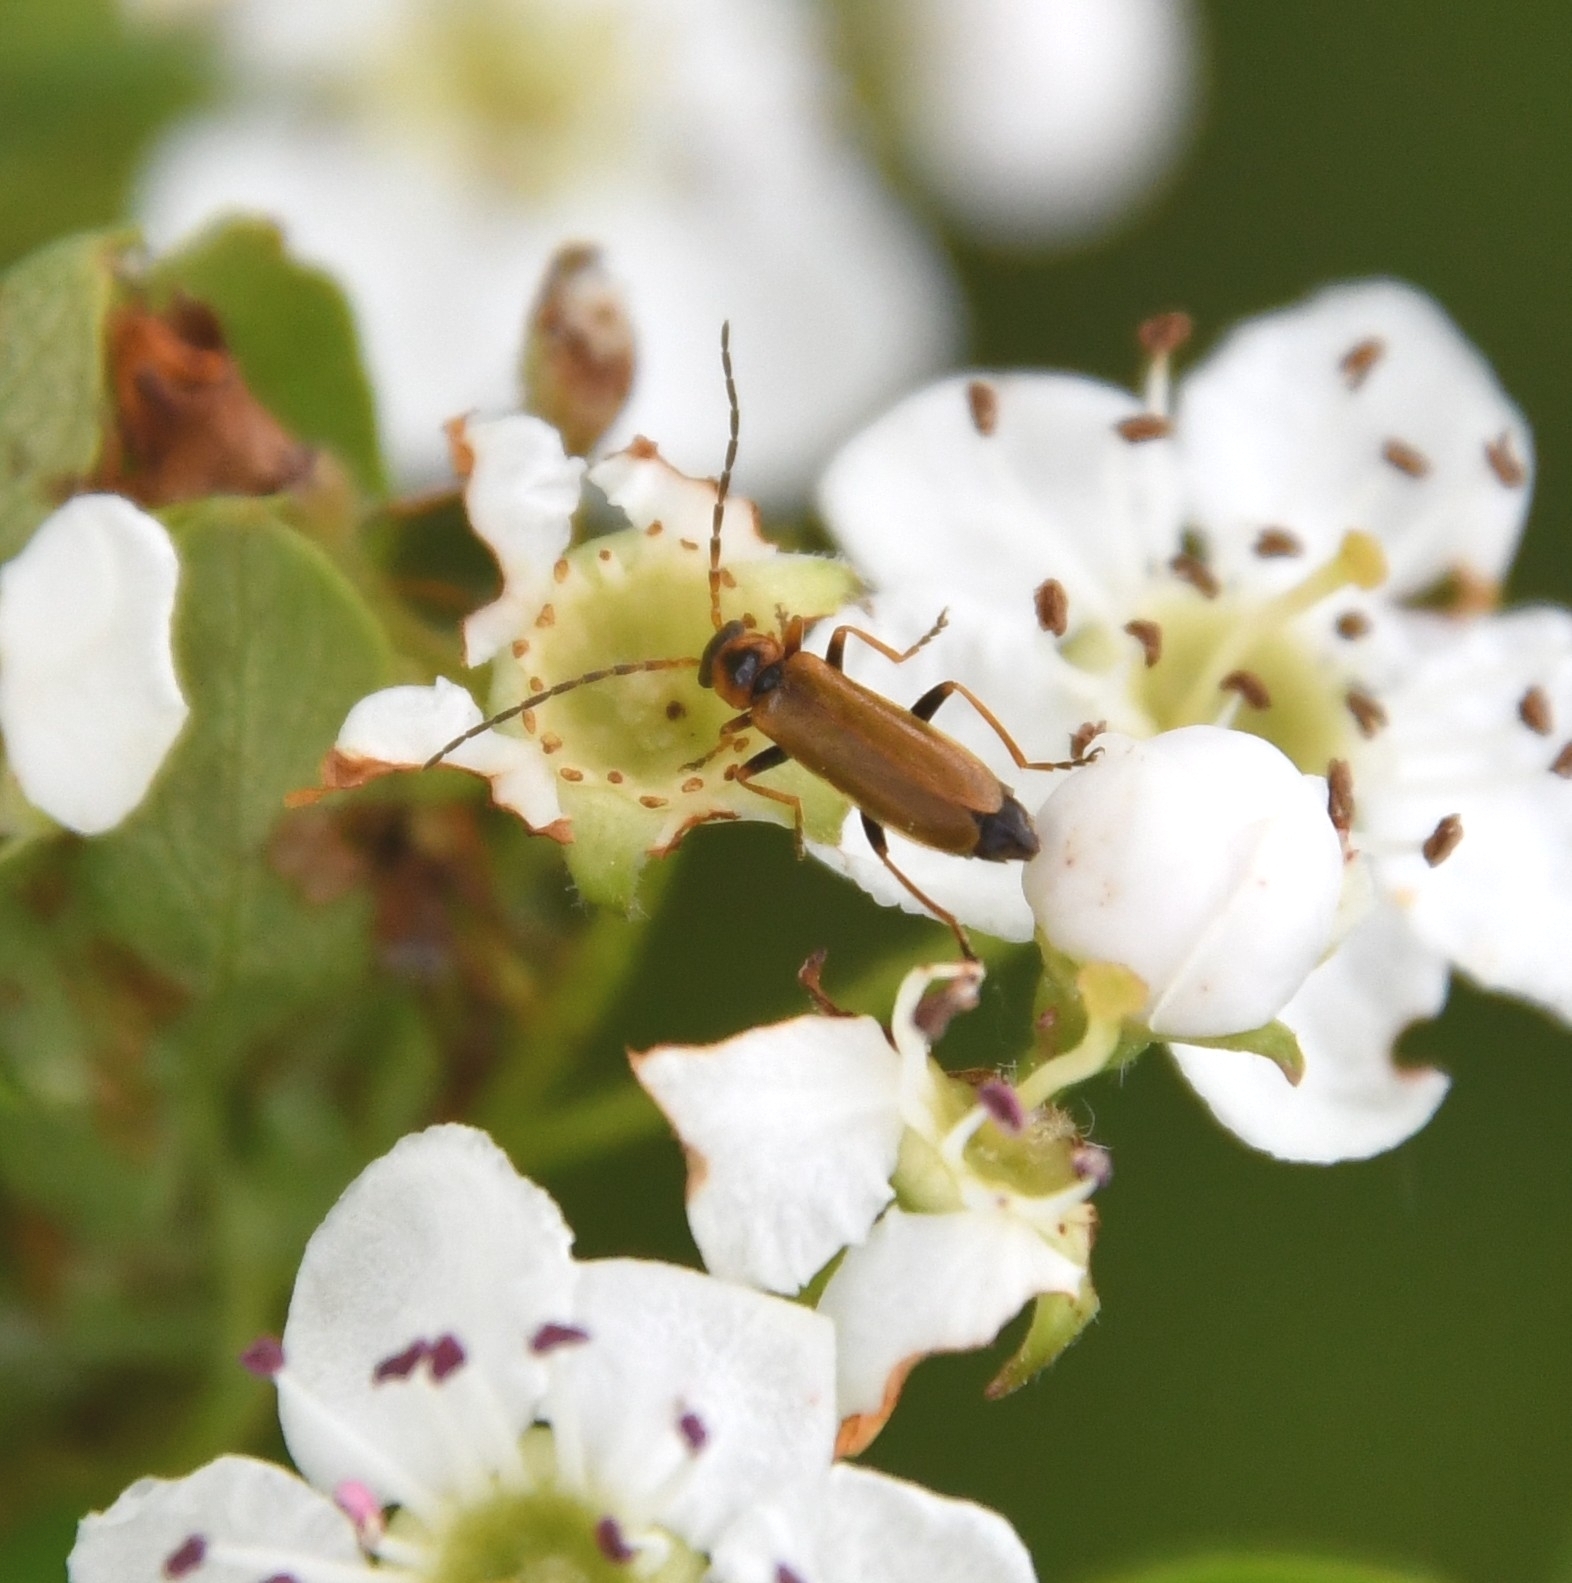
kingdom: Animalia
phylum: Arthropoda
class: Insecta
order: Coleoptera
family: Cantharidae
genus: Rhagonycha
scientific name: Rhagonycha nigriventris
